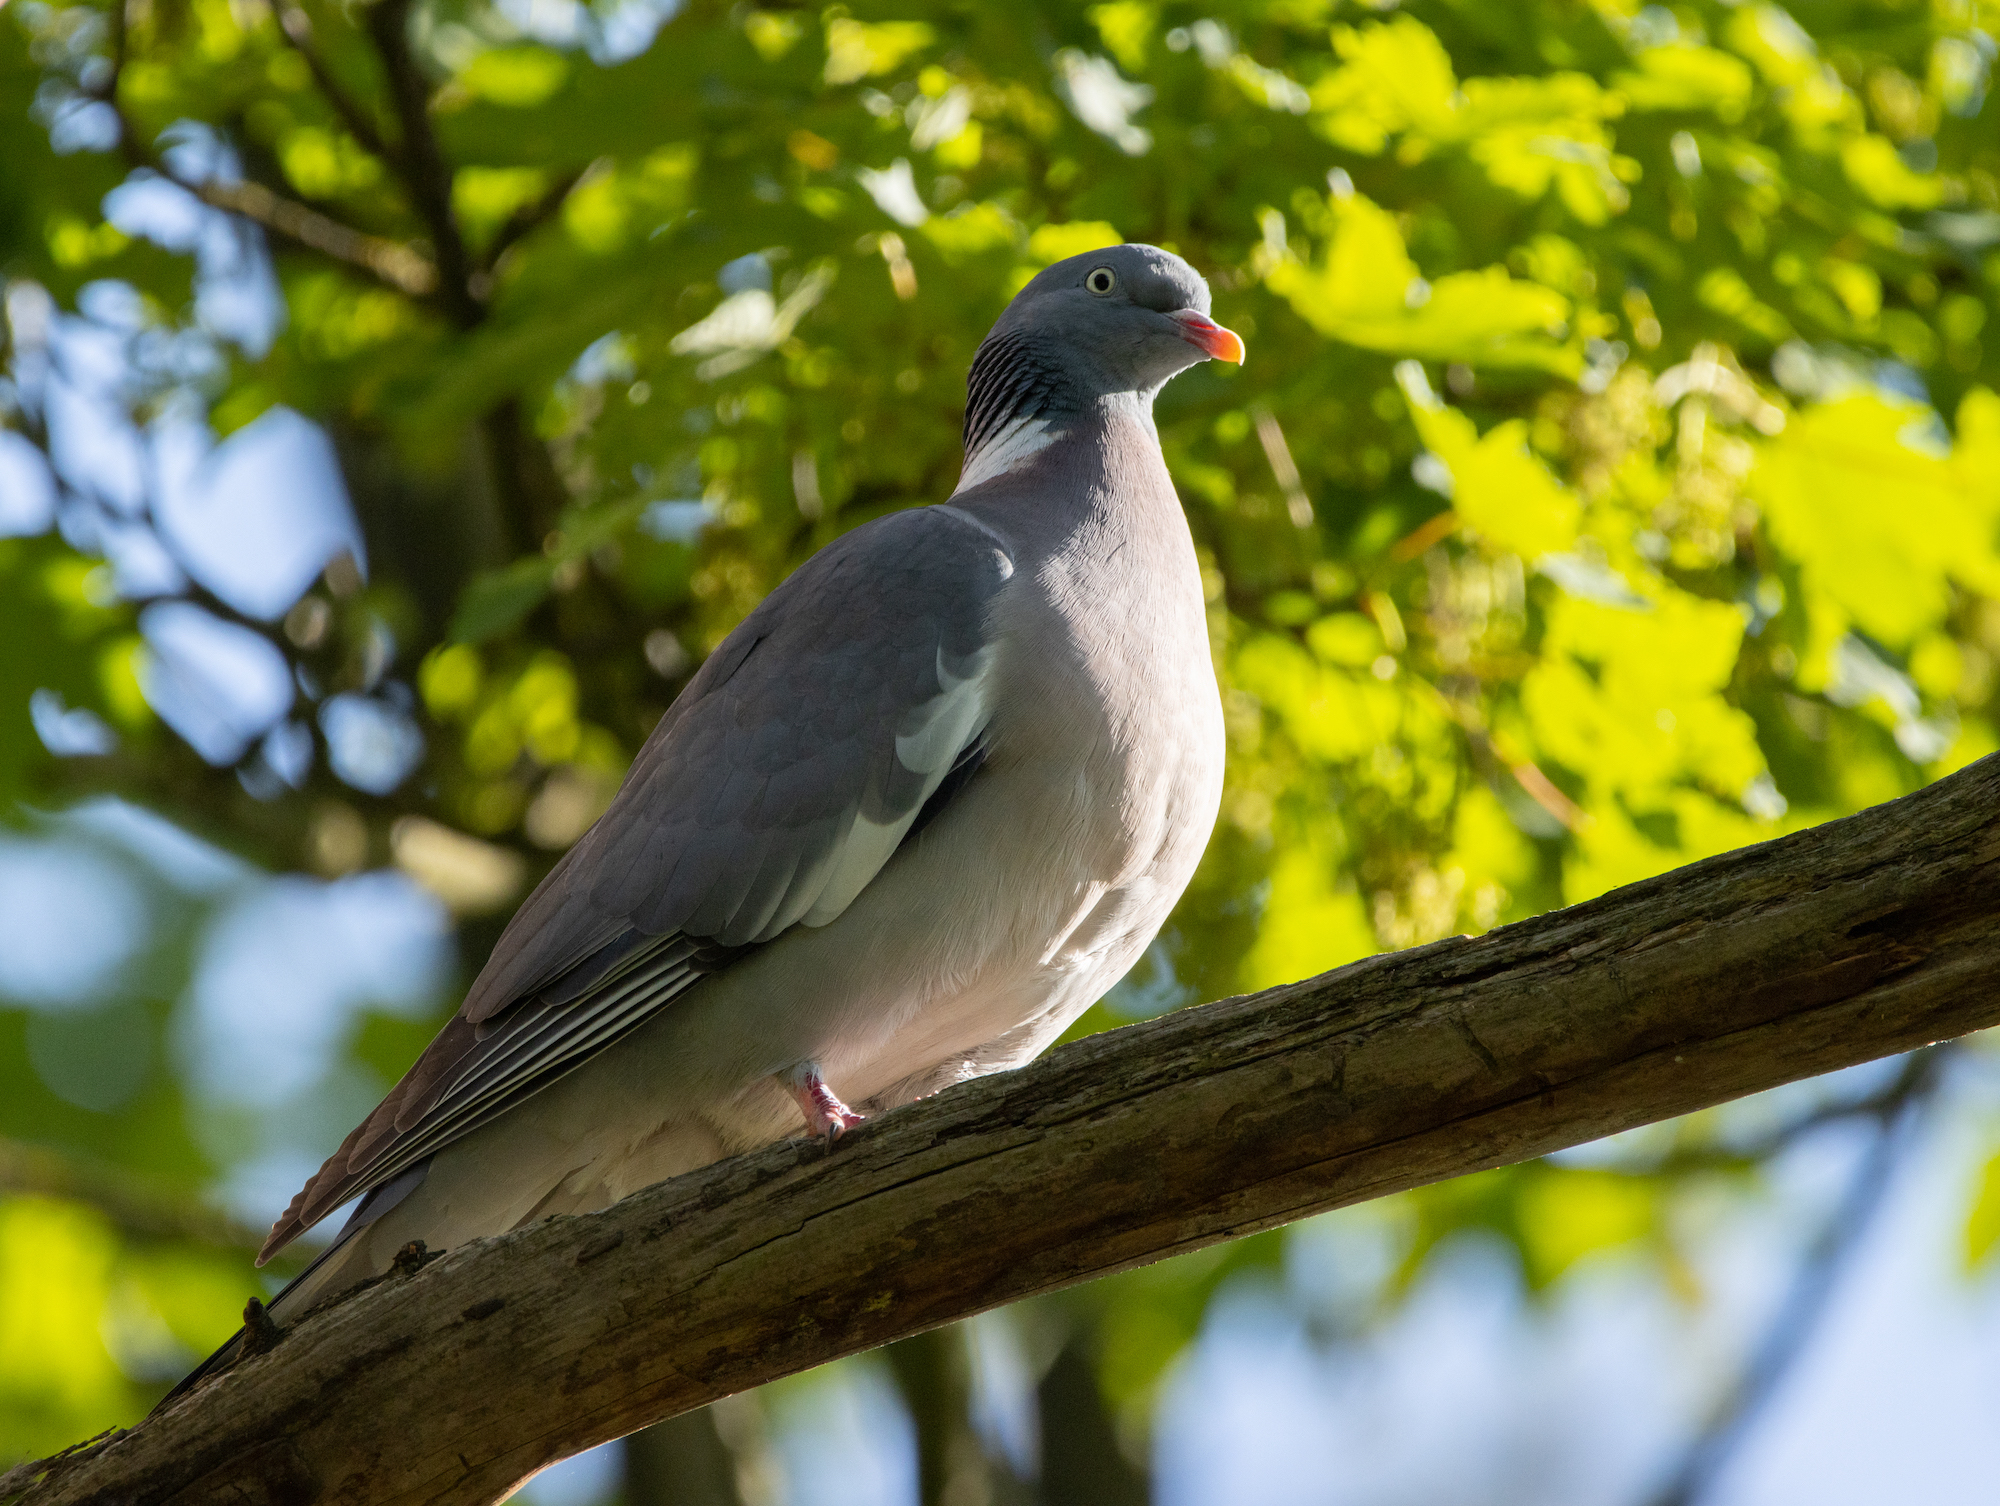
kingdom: Animalia
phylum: Chordata
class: Aves
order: Columbiformes
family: Columbidae
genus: Columba
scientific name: Columba palumbus
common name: Common wood pigeon
